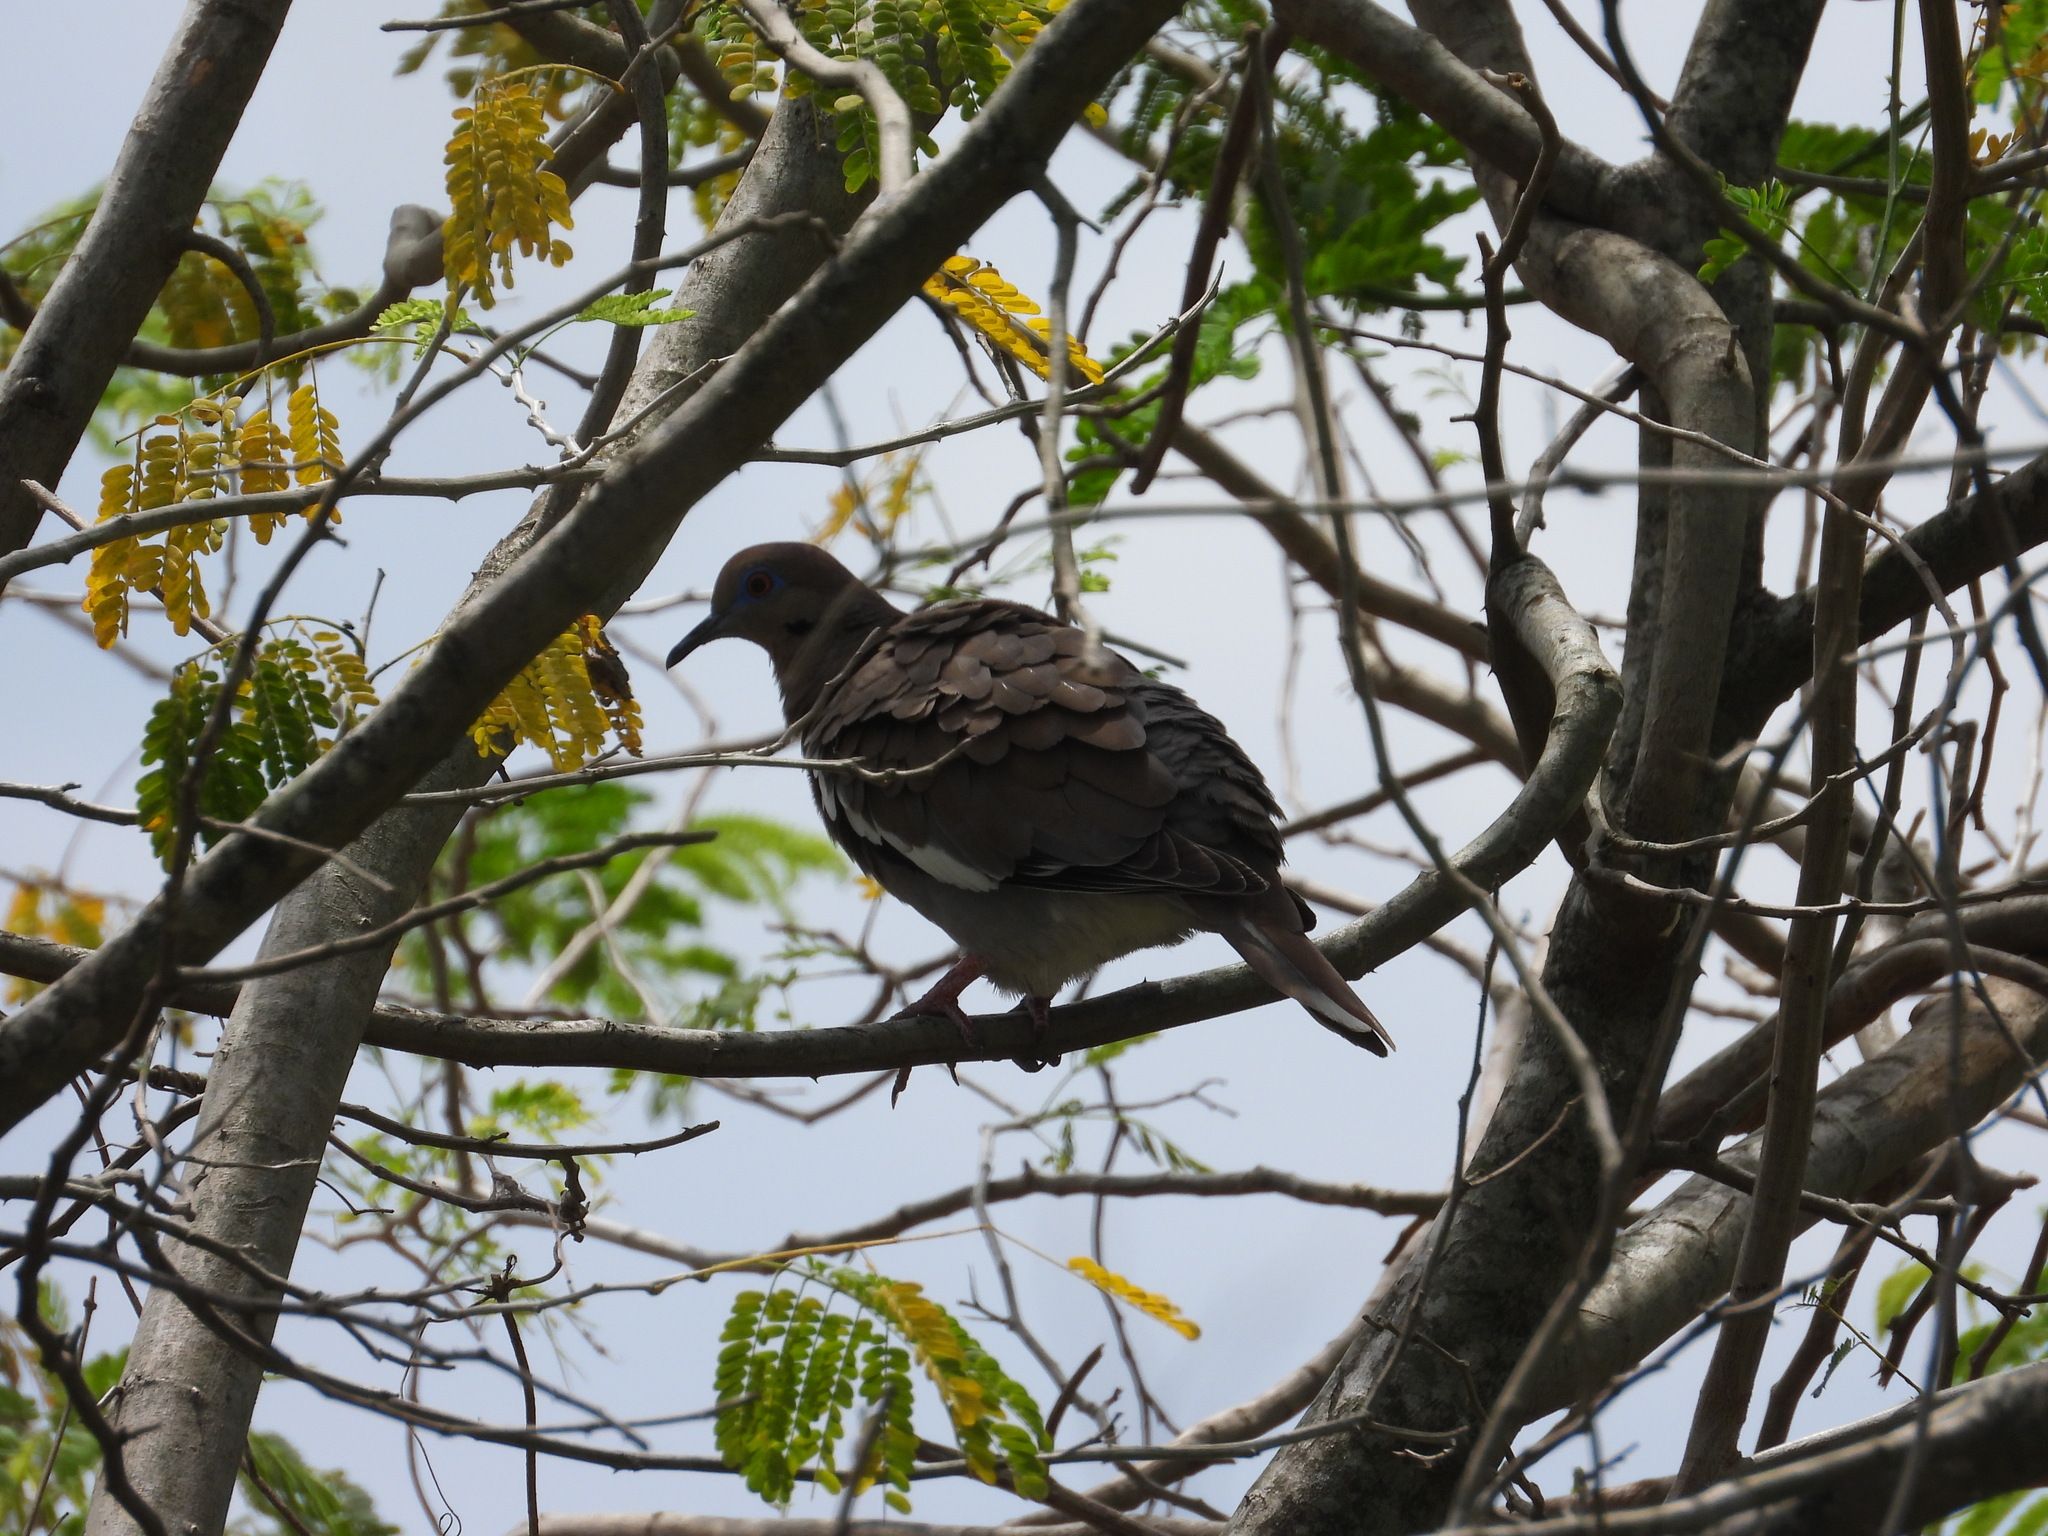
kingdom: Animalia
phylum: Chordata
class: Aves
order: Columbiformes
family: Columbidae
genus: Zenaida
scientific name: Zenaida asiatica
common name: White-winged dove
